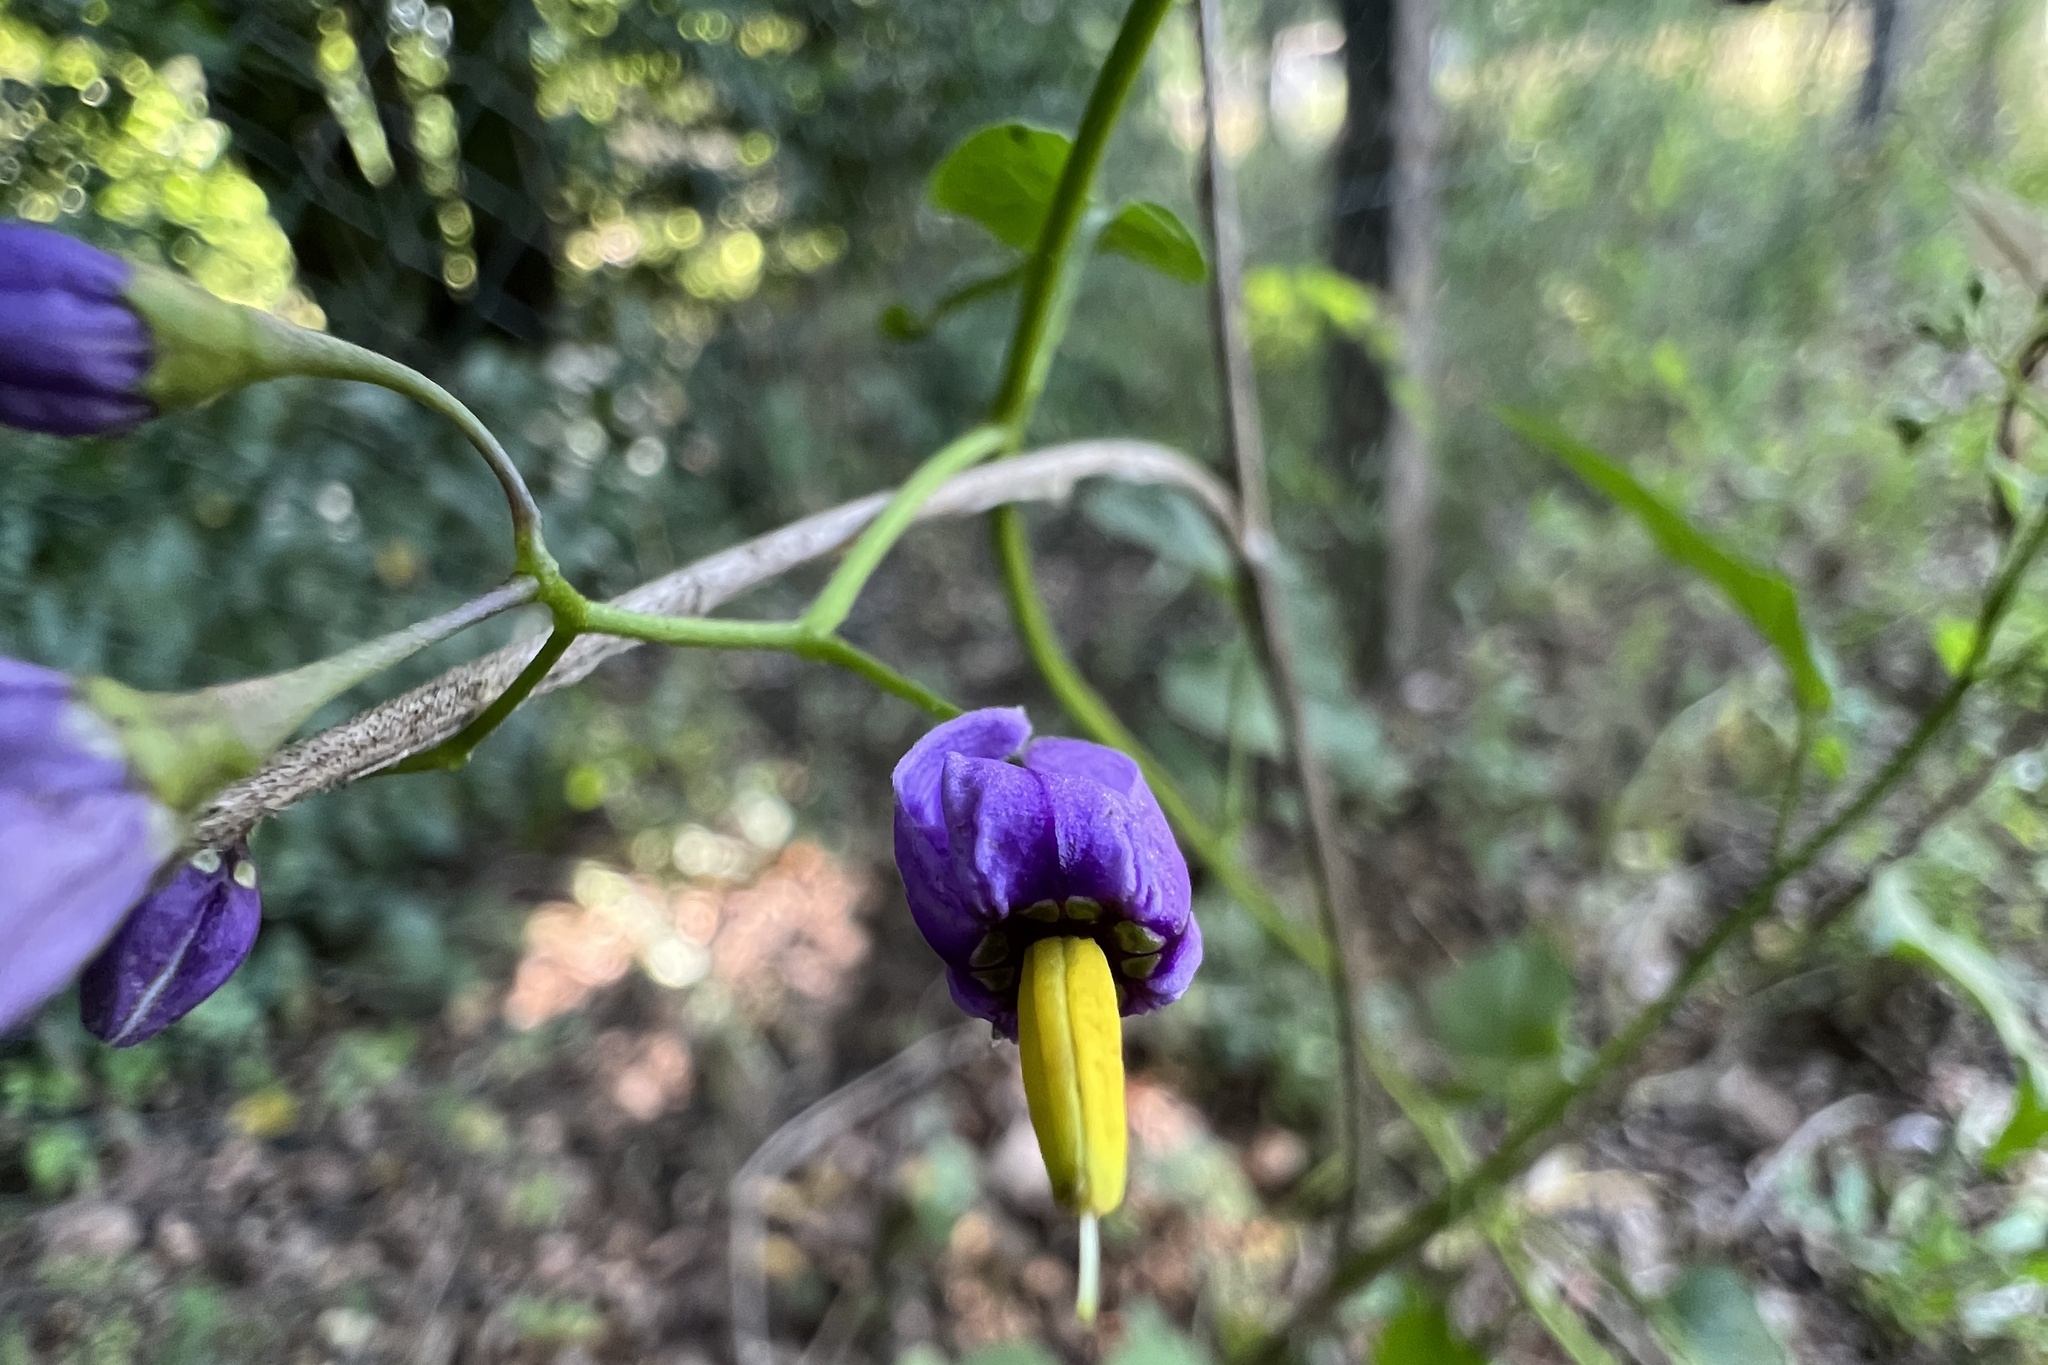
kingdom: Plantae
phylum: Tracheophyta
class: Magnoliopsida
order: Solanales
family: Solanaceae
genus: Solanum
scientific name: Solanum dulcamara
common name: Climbing nightshade
